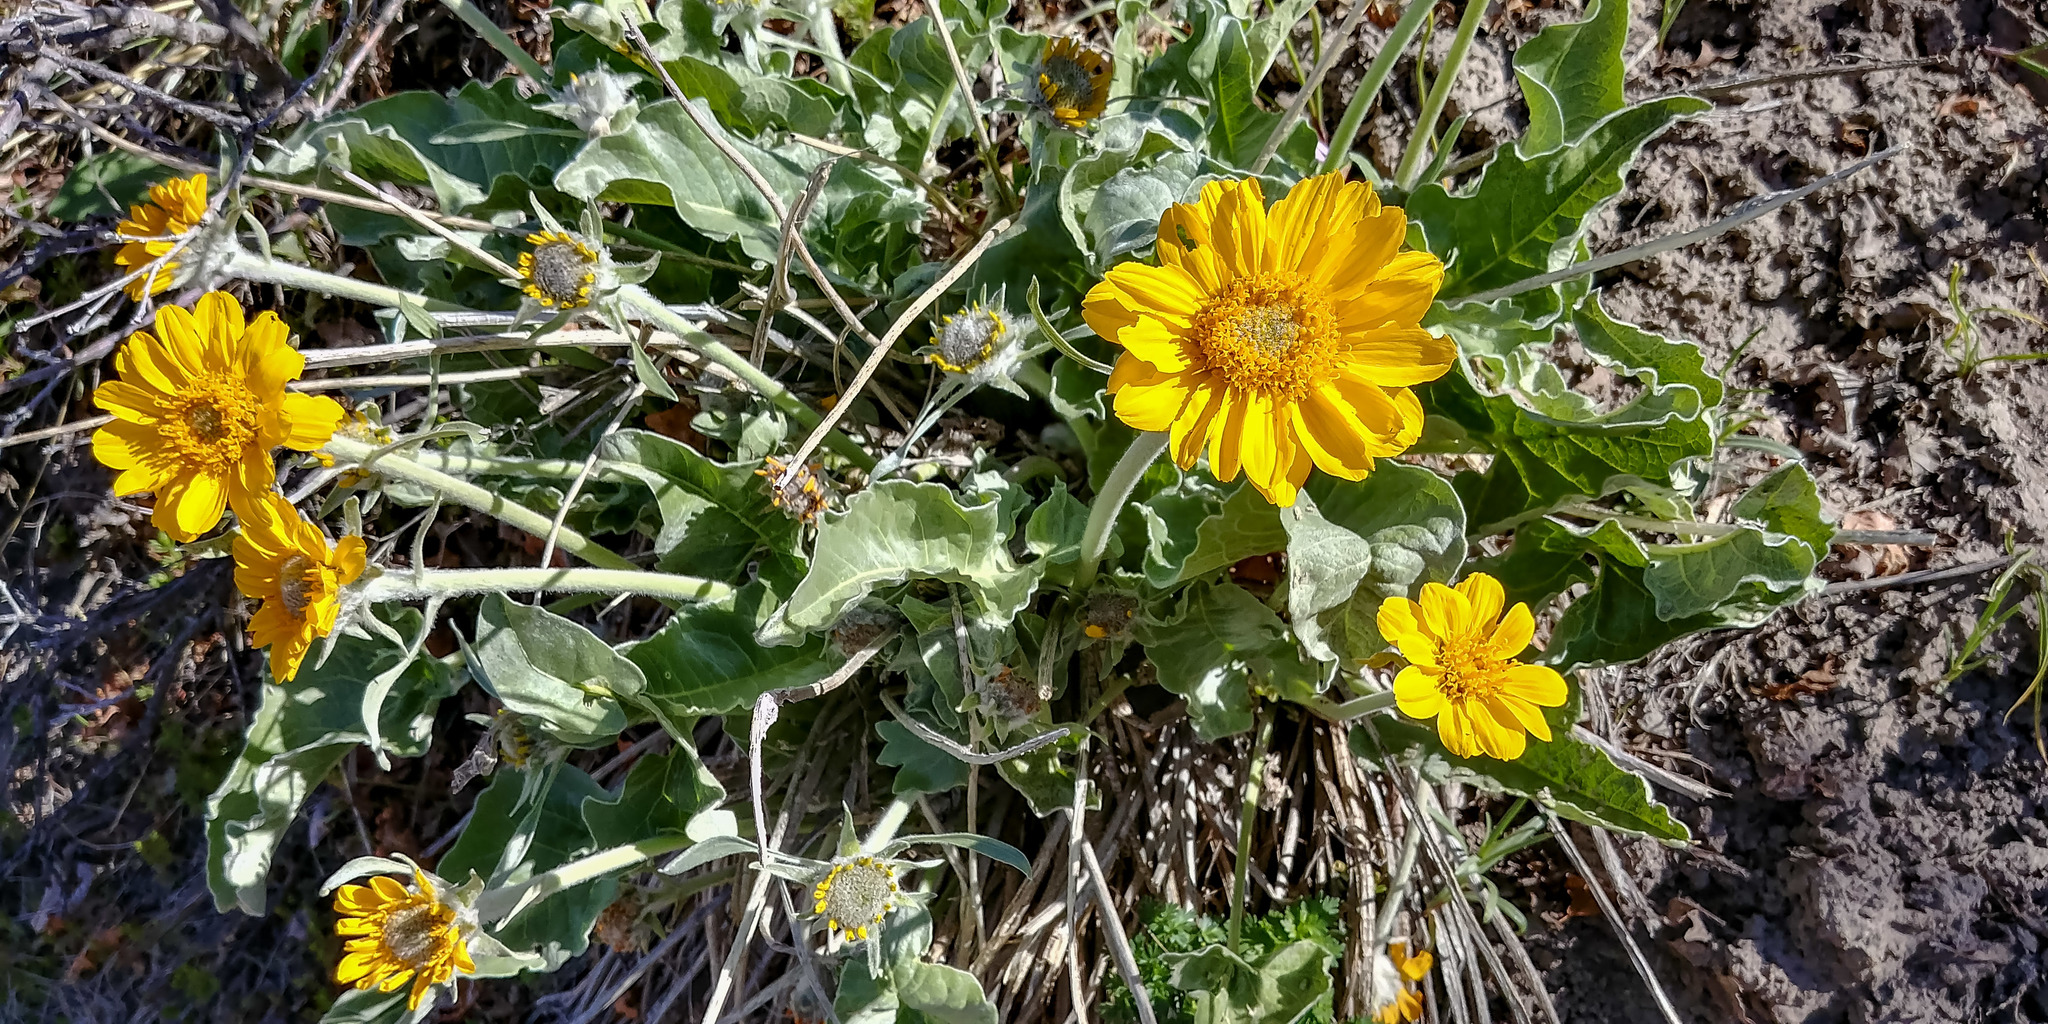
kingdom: Plantae
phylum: Tracheophyta
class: Magnoliopsida
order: Asterales
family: Asteraceae
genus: Wyethia
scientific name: Wyethia sagittata
